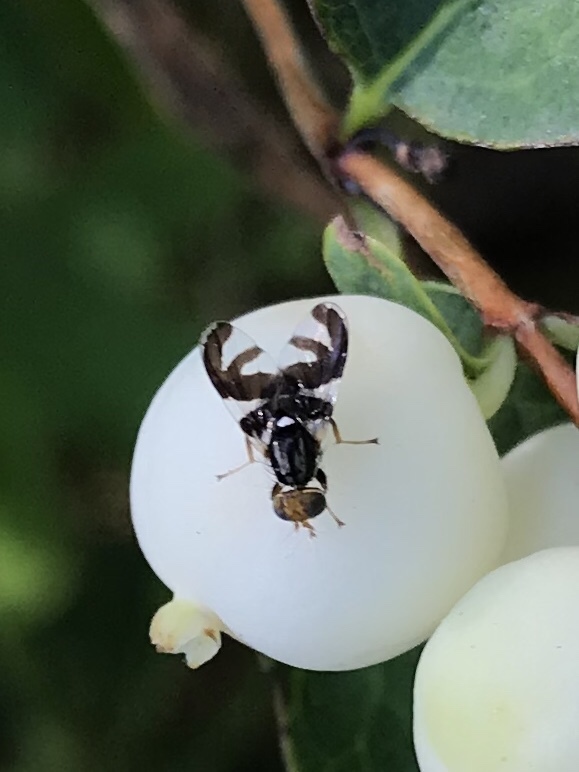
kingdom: Animalia
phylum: Arthropoda
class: Insecta
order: Diptera
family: Tephritidae
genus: Rhagoletis
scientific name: Rhagoletis zephyria
